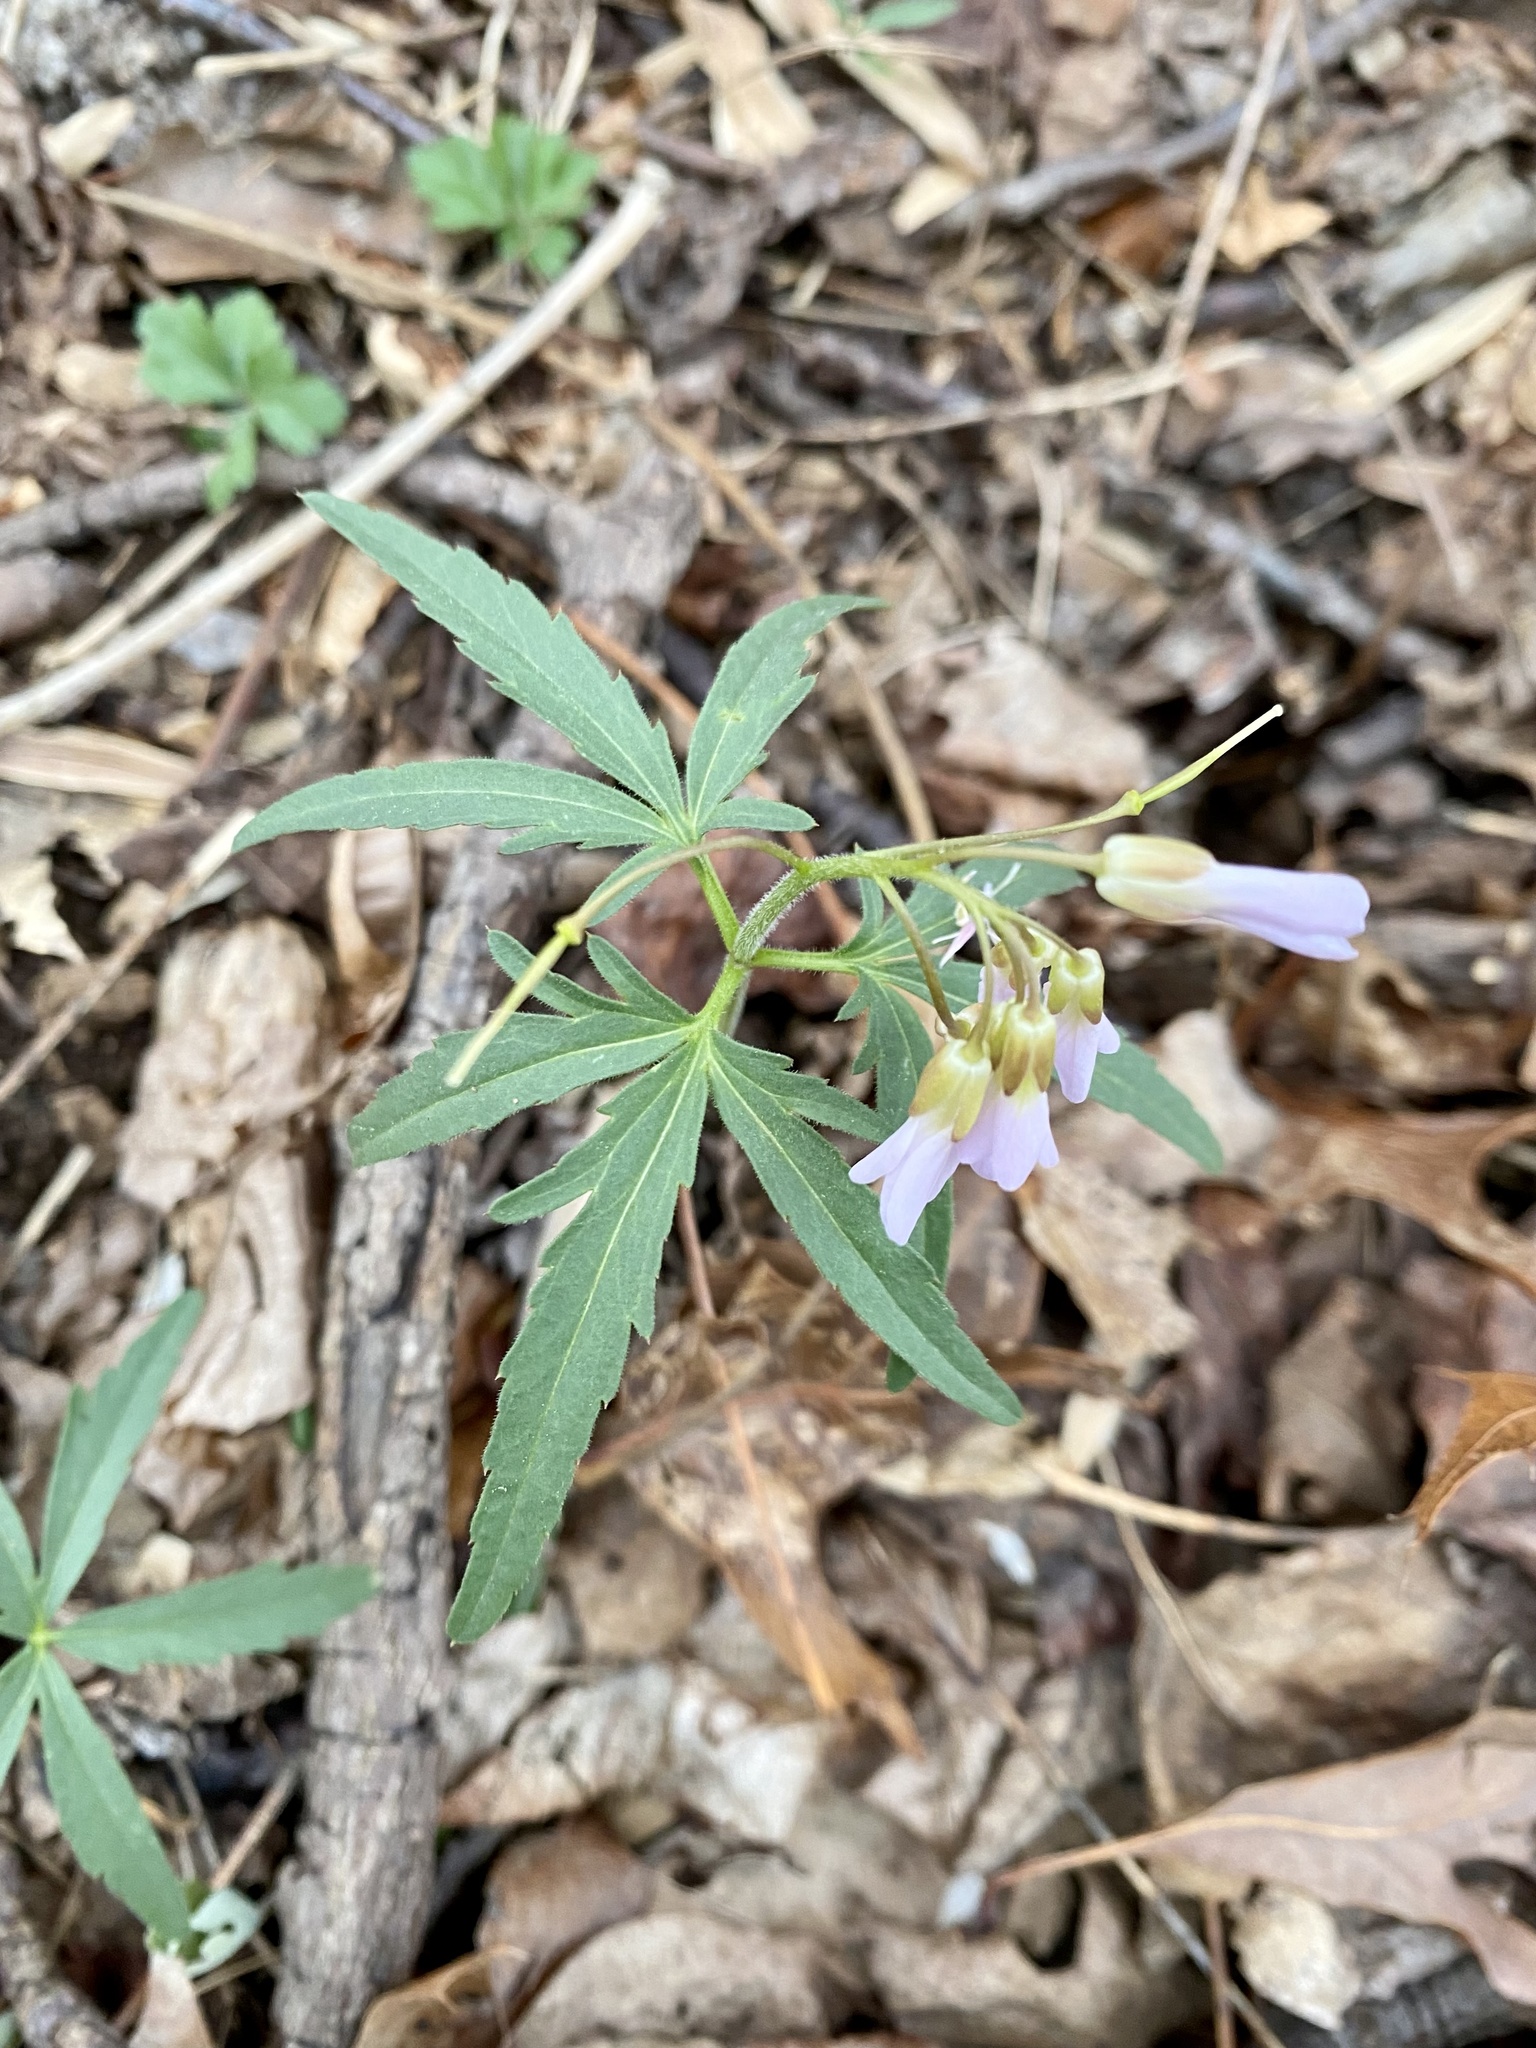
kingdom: Plantae
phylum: Tracheophyta
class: Magnoliopsida
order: Brassicales
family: Brassicaceae
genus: Cardamine
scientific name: Cardamine concatenata
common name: Cut-leaf toothcup
